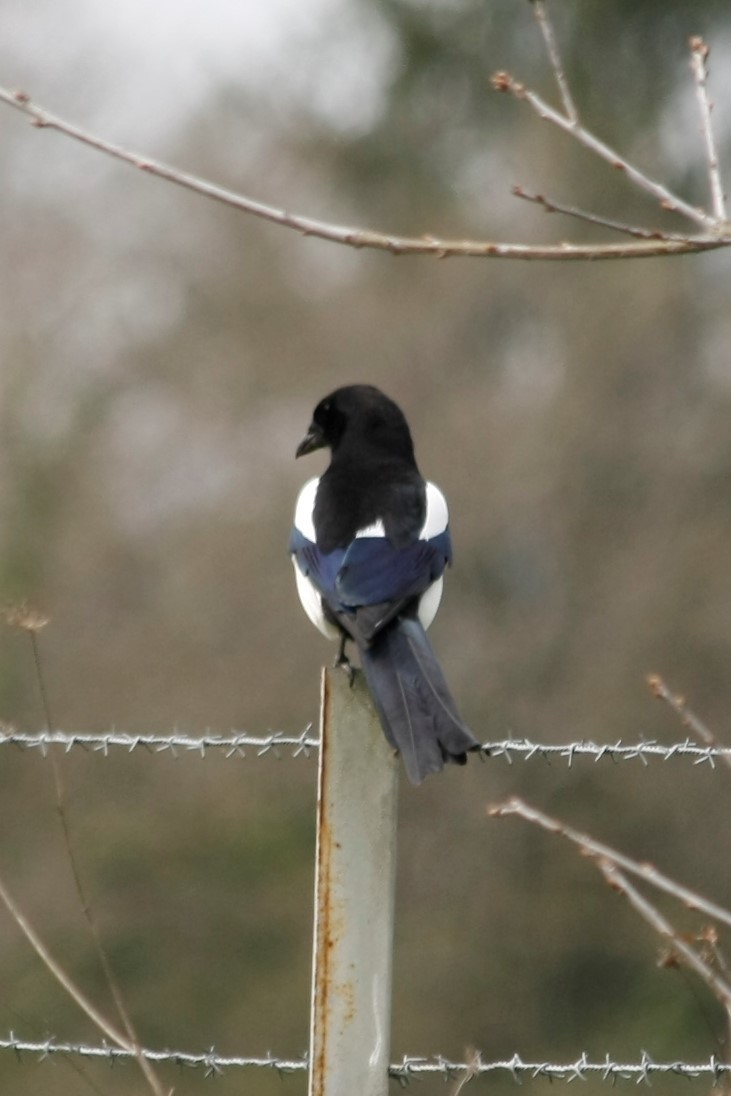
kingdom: Animalia
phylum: Chordata
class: Aves
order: Passeriformes
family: Corvidae
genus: Pica
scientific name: Pica pica
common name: Eurasian magpie
